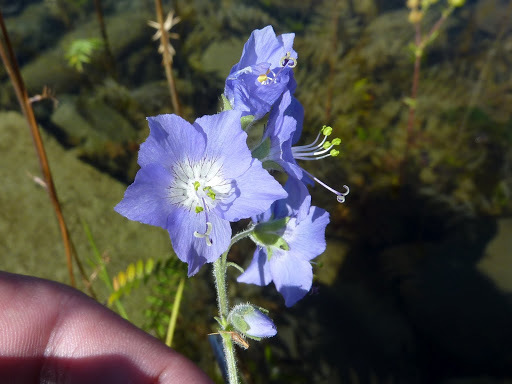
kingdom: Plantae
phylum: Tracheophyta
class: Magnoliopsida
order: Ericales
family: Polemoniaceae
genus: Polemonium
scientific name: Polemonium acutiflorum
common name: Tall jacob's-ladder
